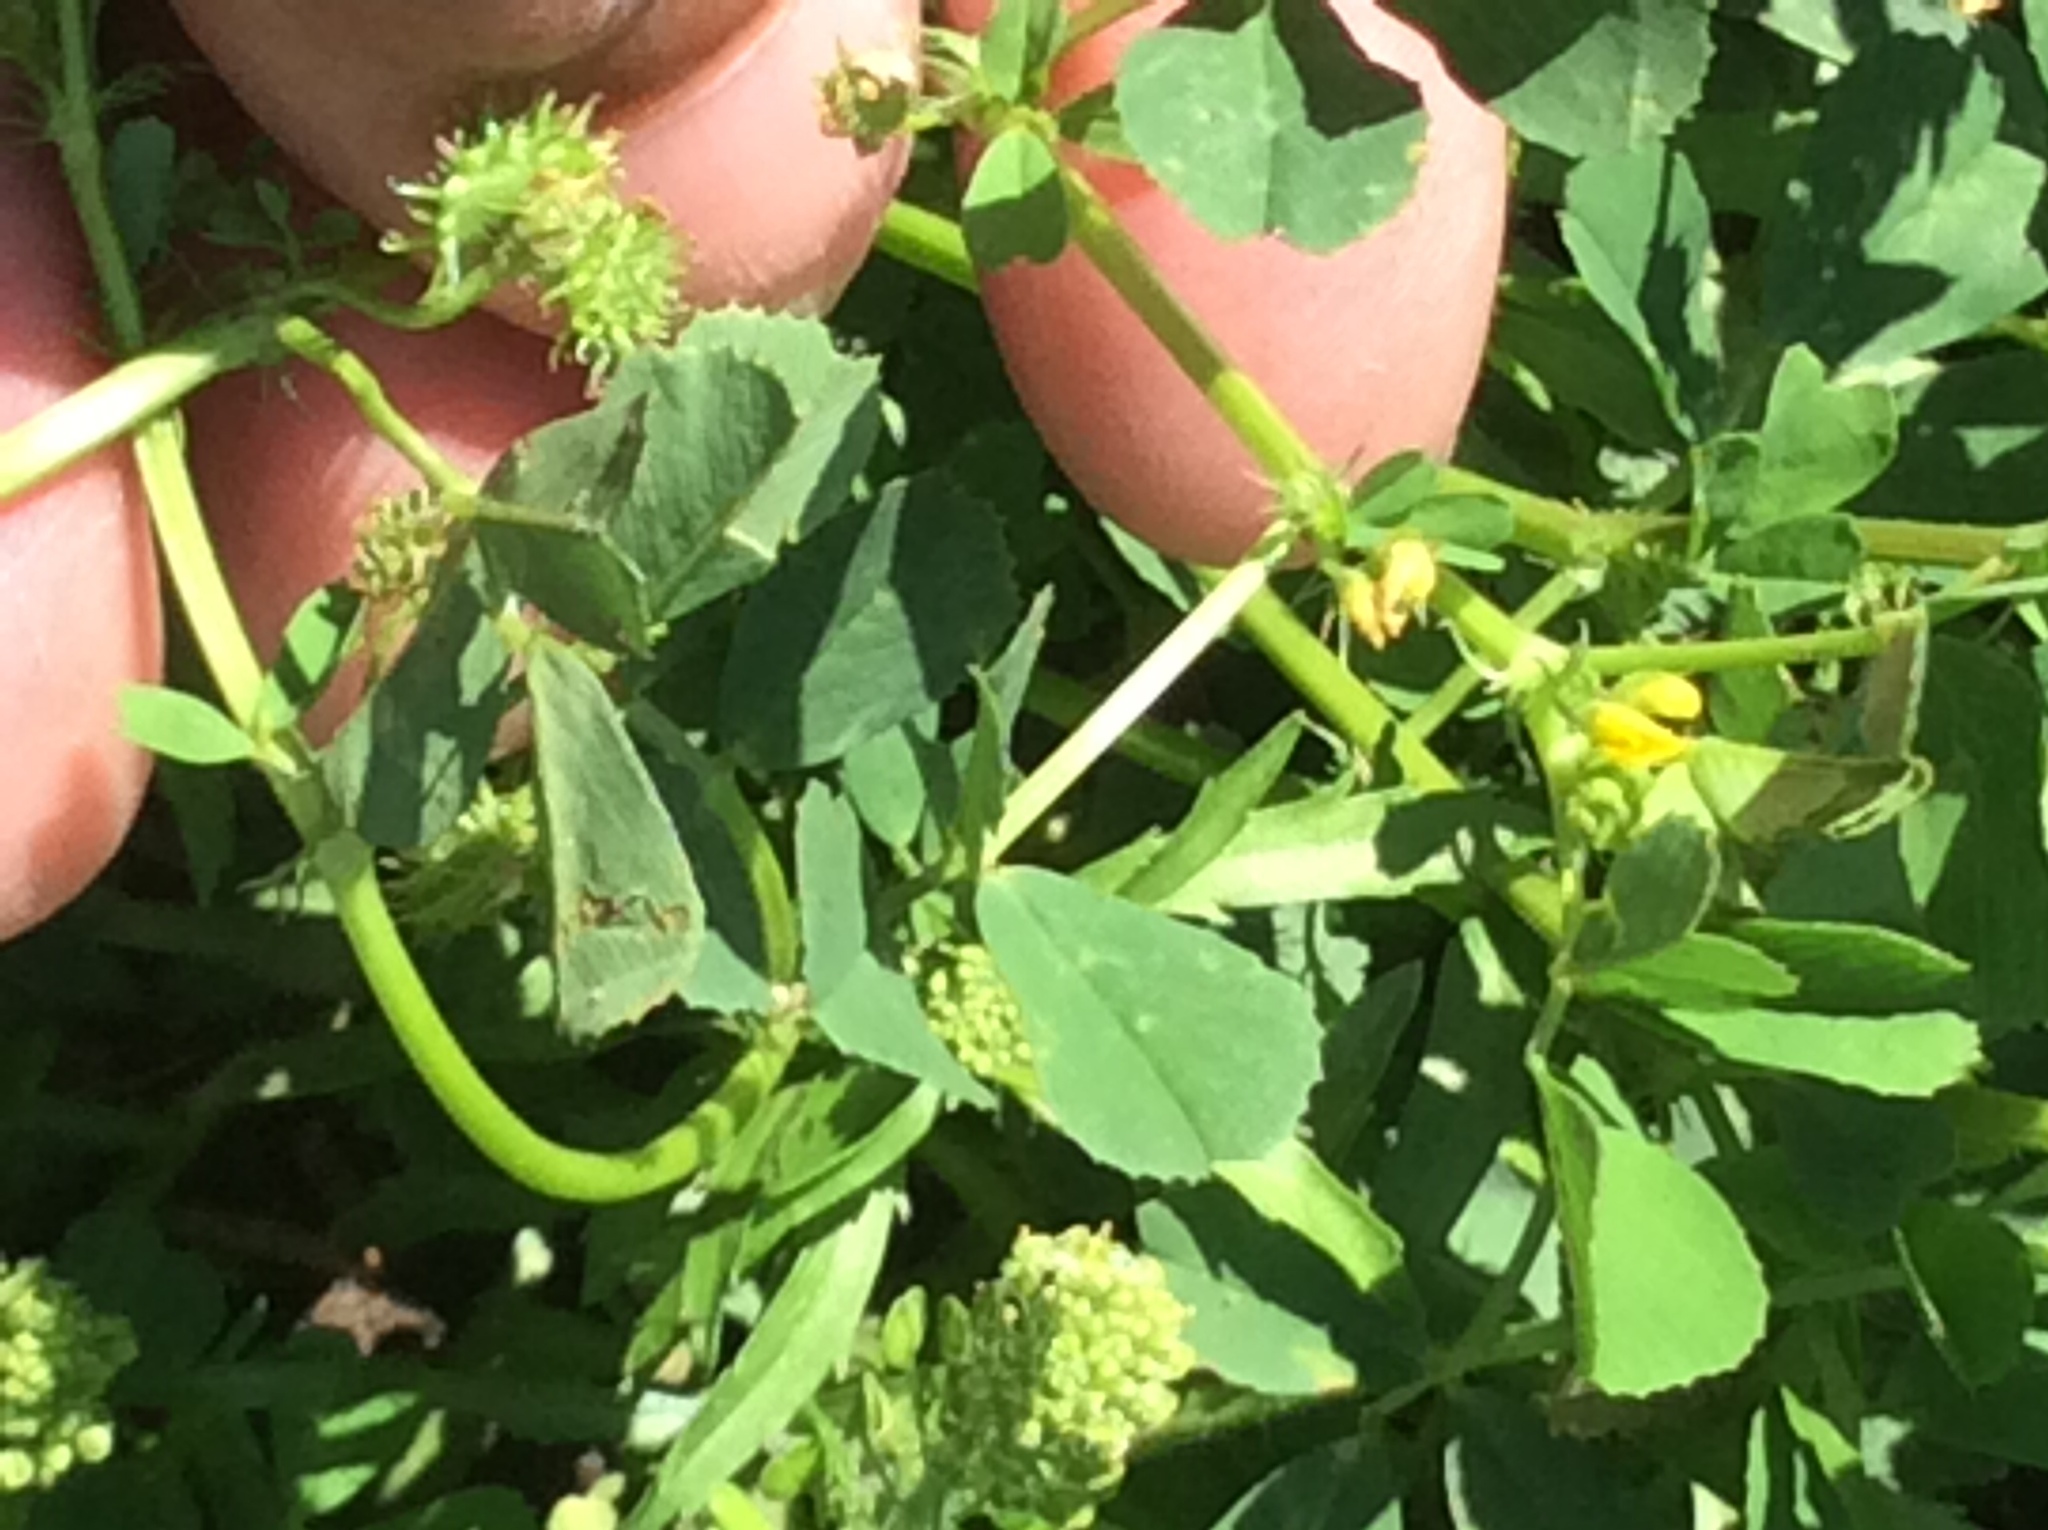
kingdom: Plantae
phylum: Tracheophyta
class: Magnoliopsida
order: Fabales
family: Fabaceae
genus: Medicago
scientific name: Medicago polymorpha
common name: Burclover
